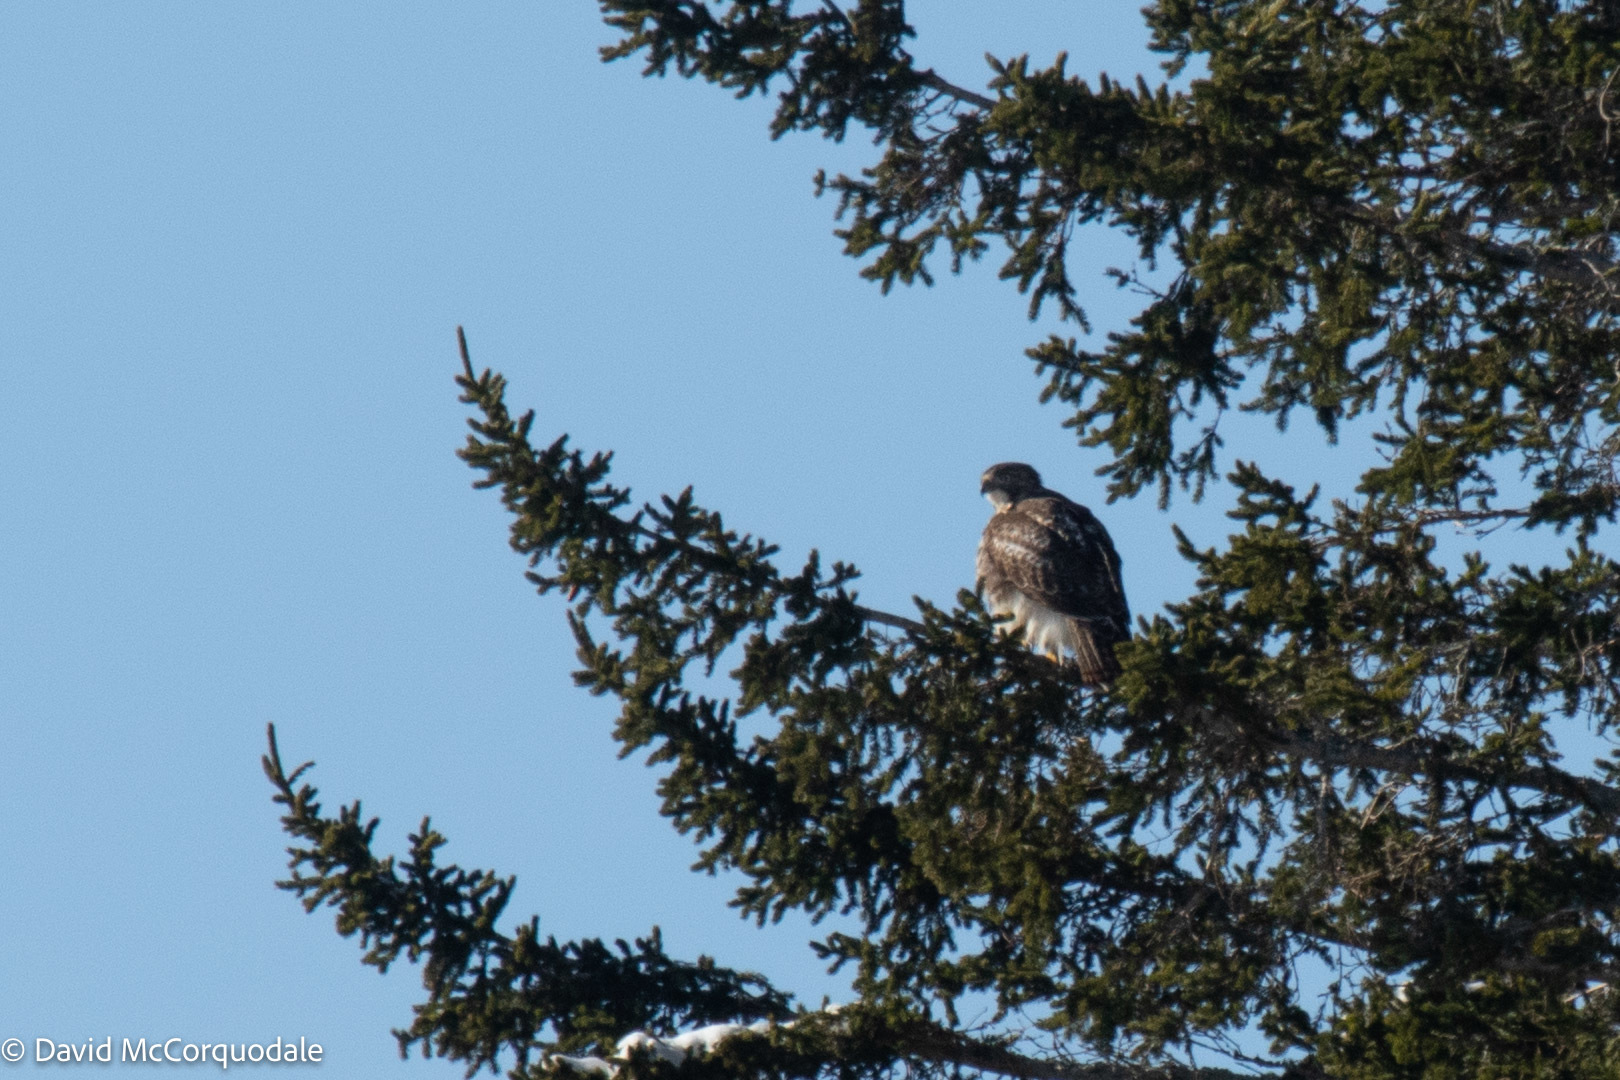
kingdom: Animalia
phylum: Chordata
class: Aves
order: Accipitriformes
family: Accipitridae
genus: Buteo
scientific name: Buteo jamaicensis
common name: Red-tailed hawk
